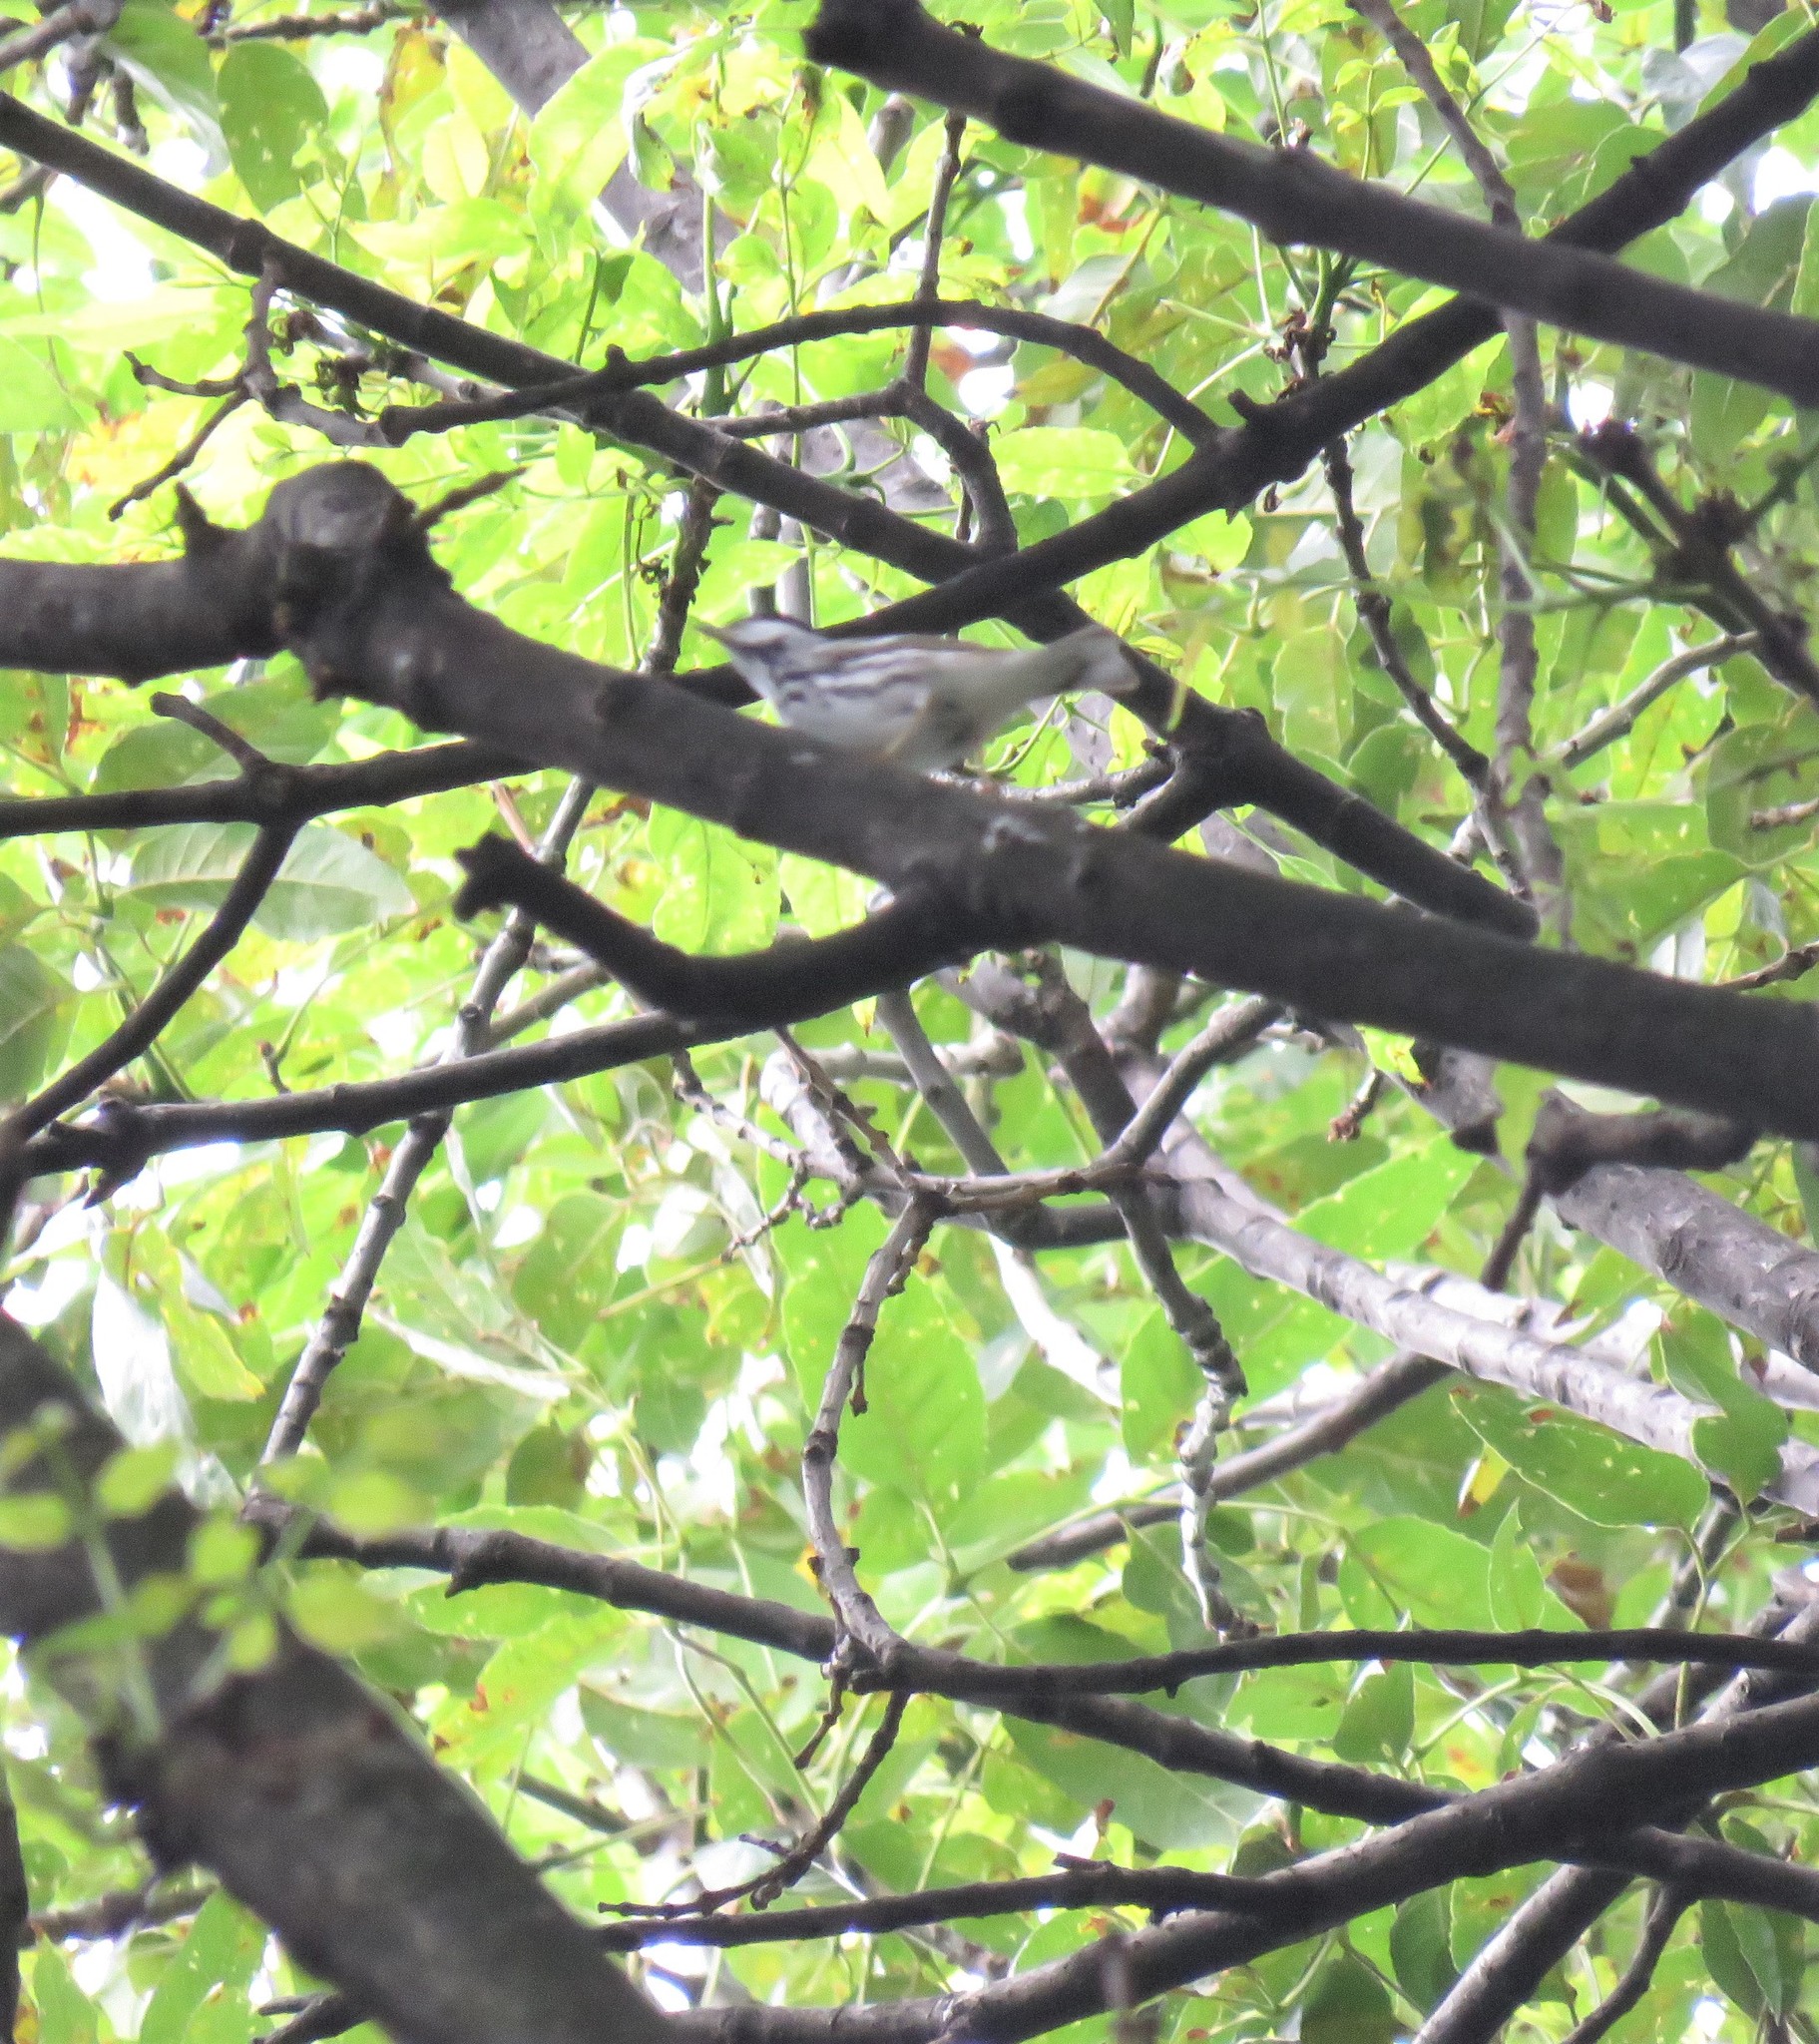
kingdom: Animalia
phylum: Chordata
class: Aves
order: Passeriformes
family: Parulidae
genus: Setophaga
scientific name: Setophaga striata
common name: Blackpoll warbler
